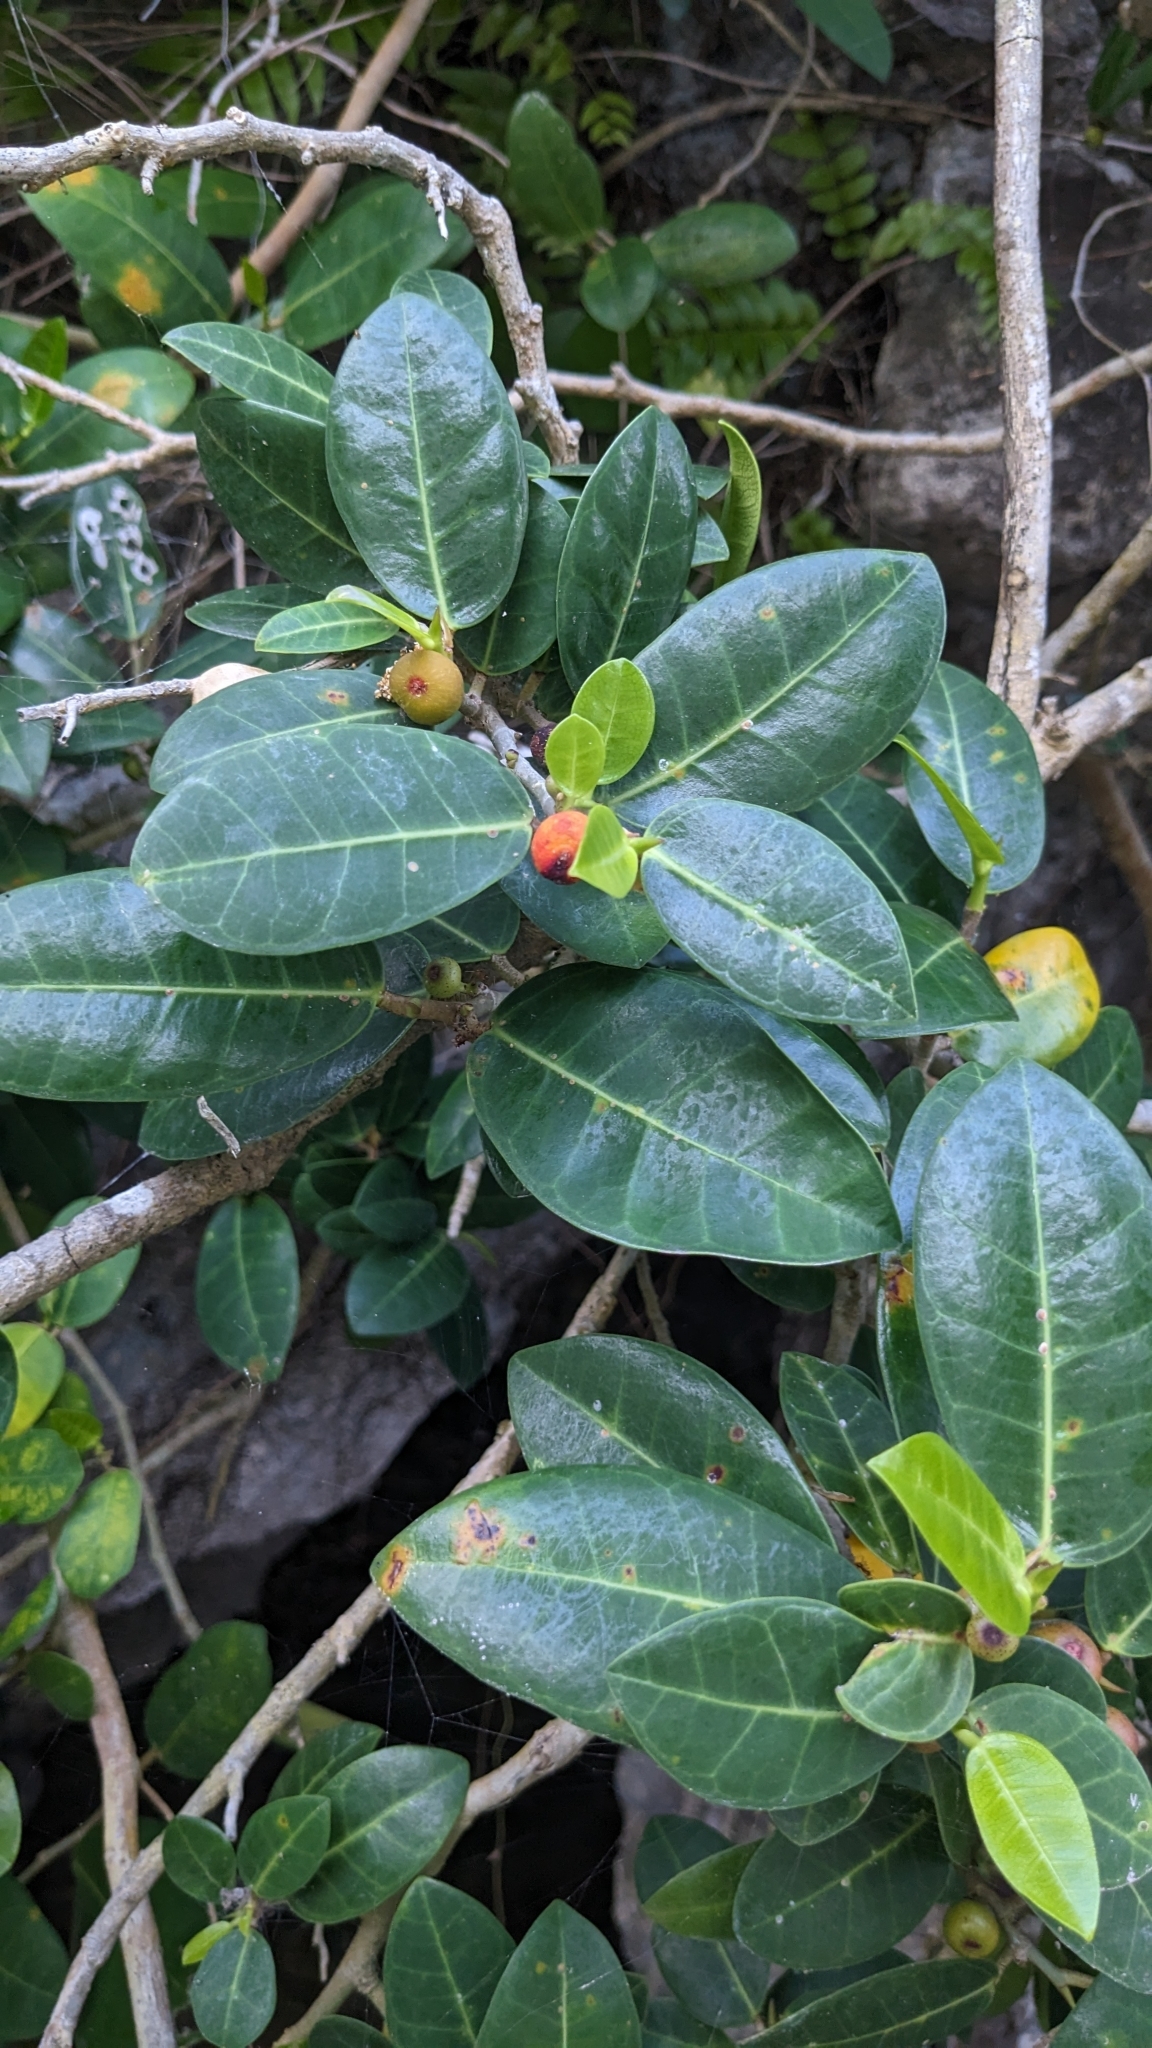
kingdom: Plantae
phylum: Tracheophyta
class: Magnoliopsida
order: Rosales
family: Moraceae
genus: Ficus
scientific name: Ficus tinctoria
